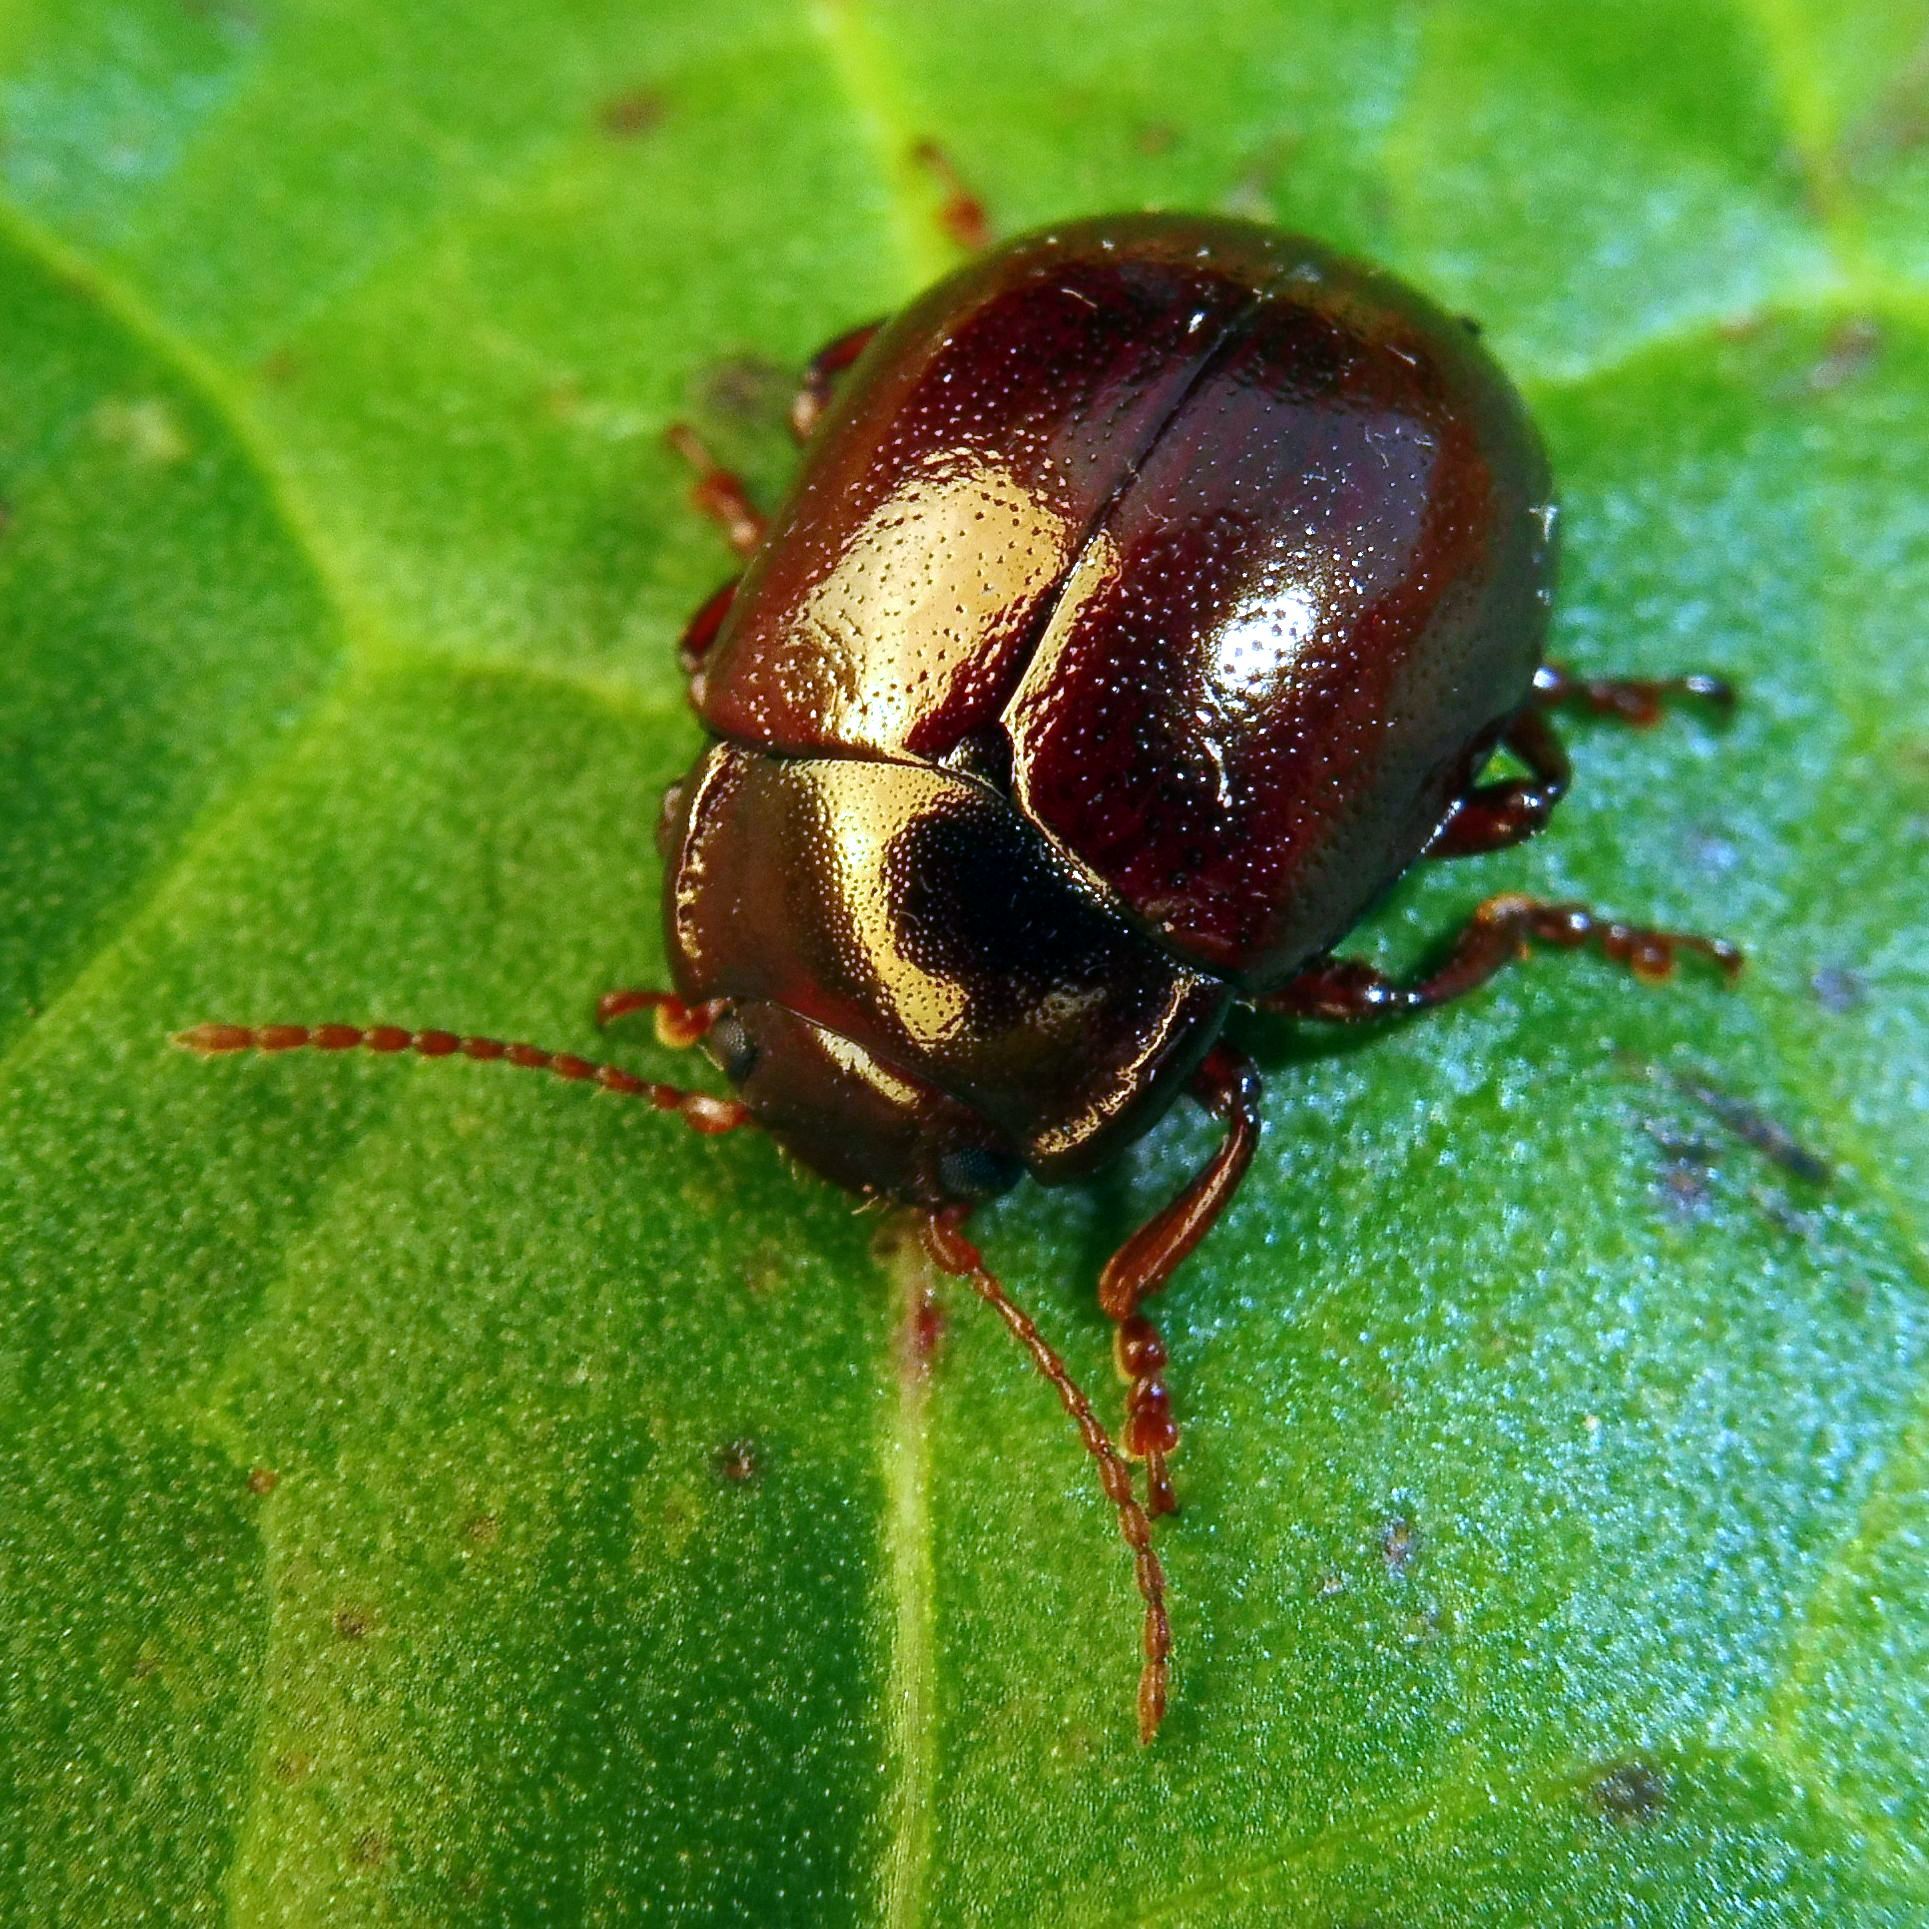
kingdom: Animalia
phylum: Arthropoda
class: Insecta
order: Coleoptera
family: Chrysomelidae
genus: Chrysolina
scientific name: Chrysolina staphylaea
